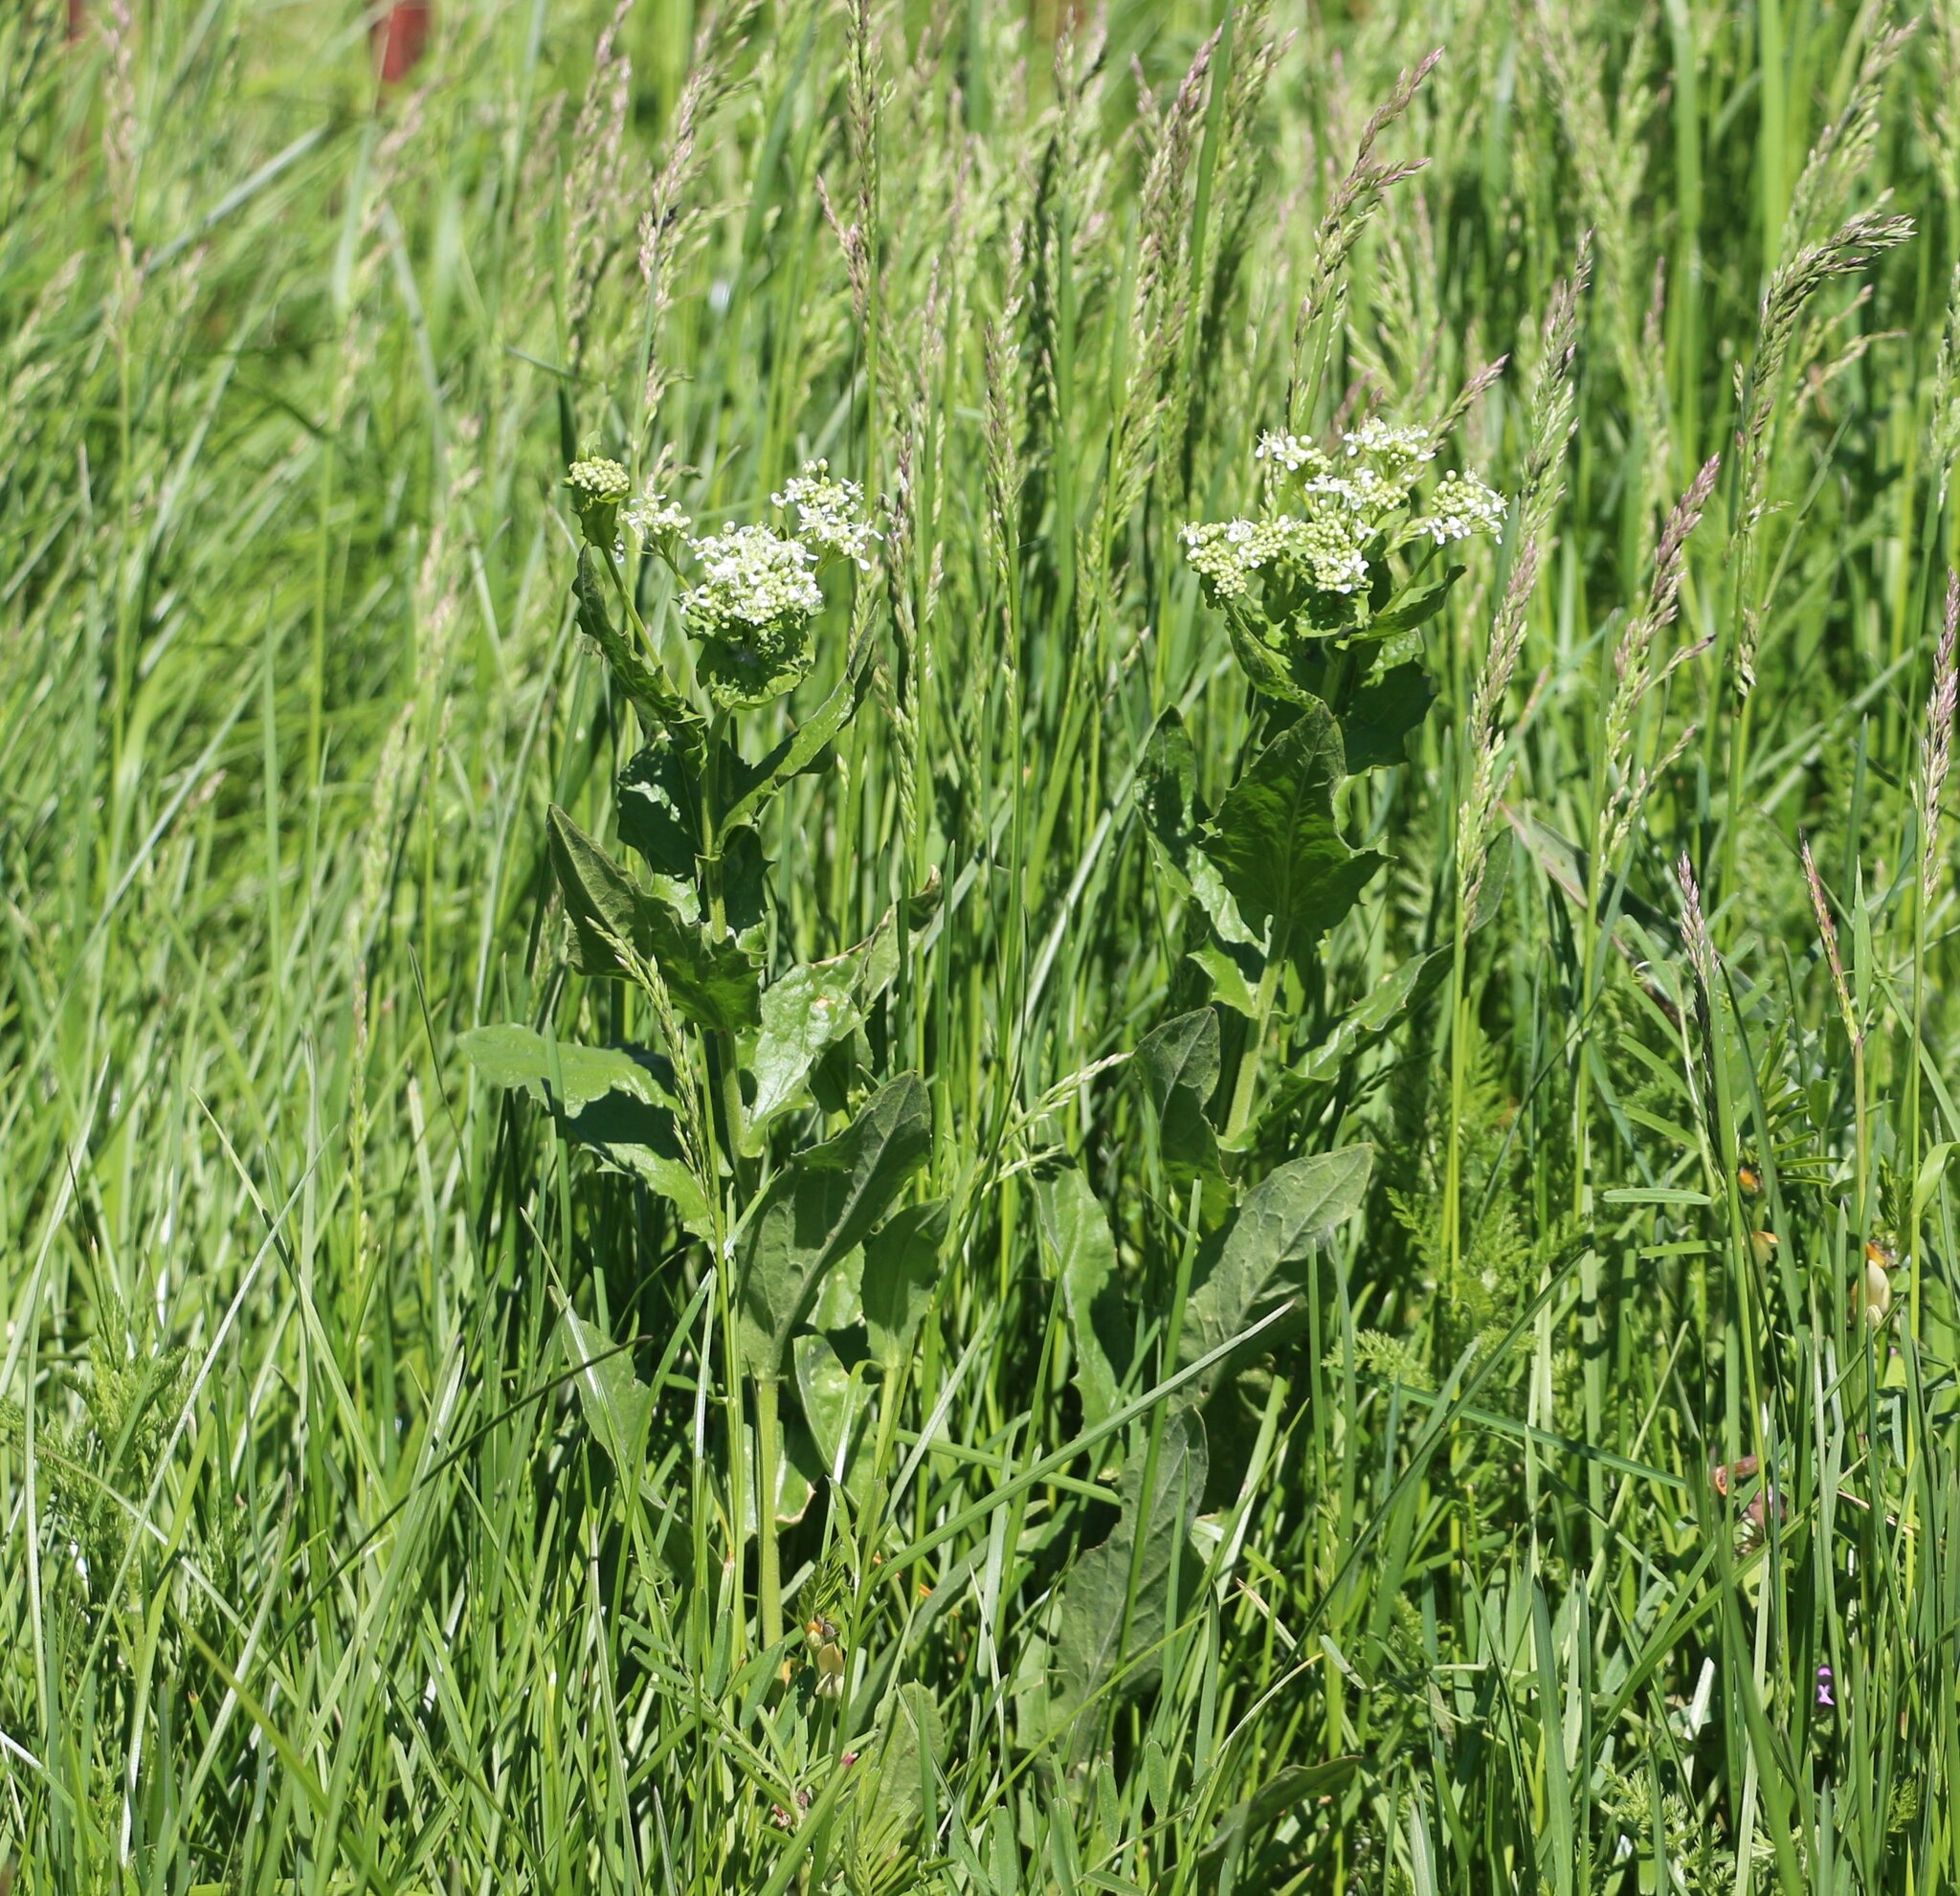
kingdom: Plantae
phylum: Tracheophyta
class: Magnoliopsida
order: Brassicales
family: Brassicaceae
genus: Lepidium
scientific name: Lepidium draba
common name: Hoary cress
